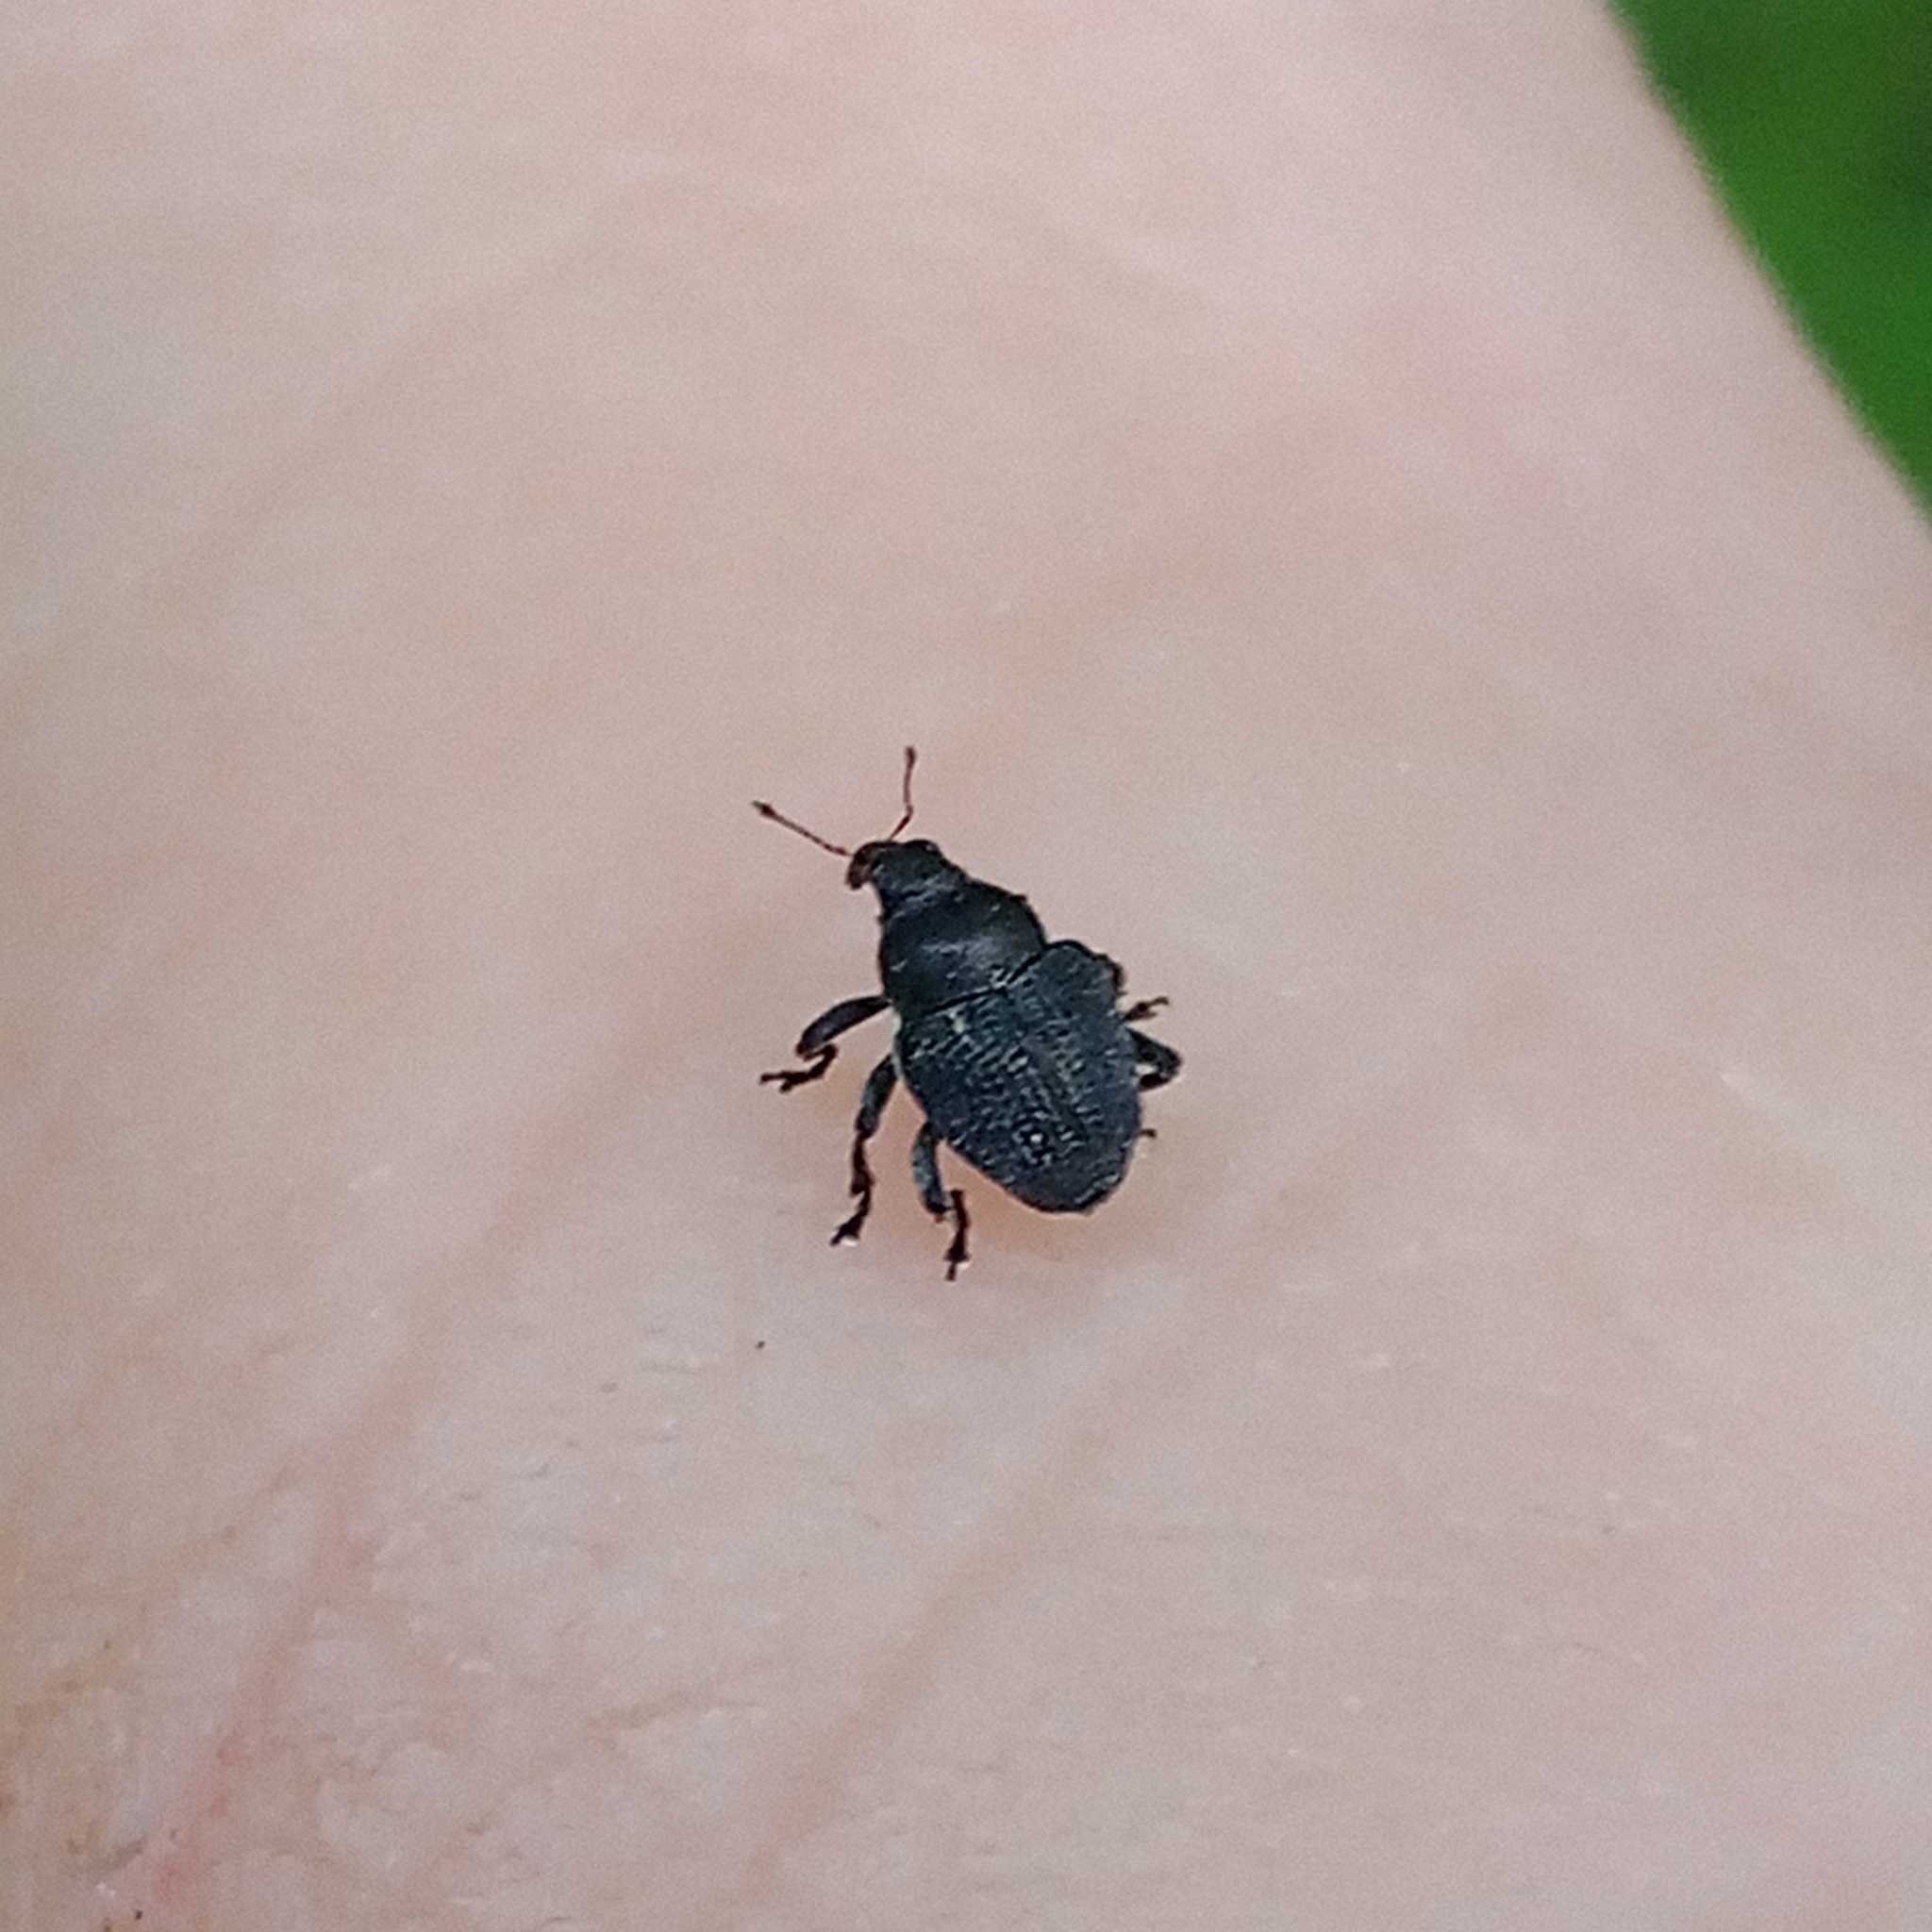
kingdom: Animalia
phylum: Arthropoda
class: Insecta
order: Coleoptera
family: Curculionidae
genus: Zacladus
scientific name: Zacladus geranii
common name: Meadow cranesbill weevil
